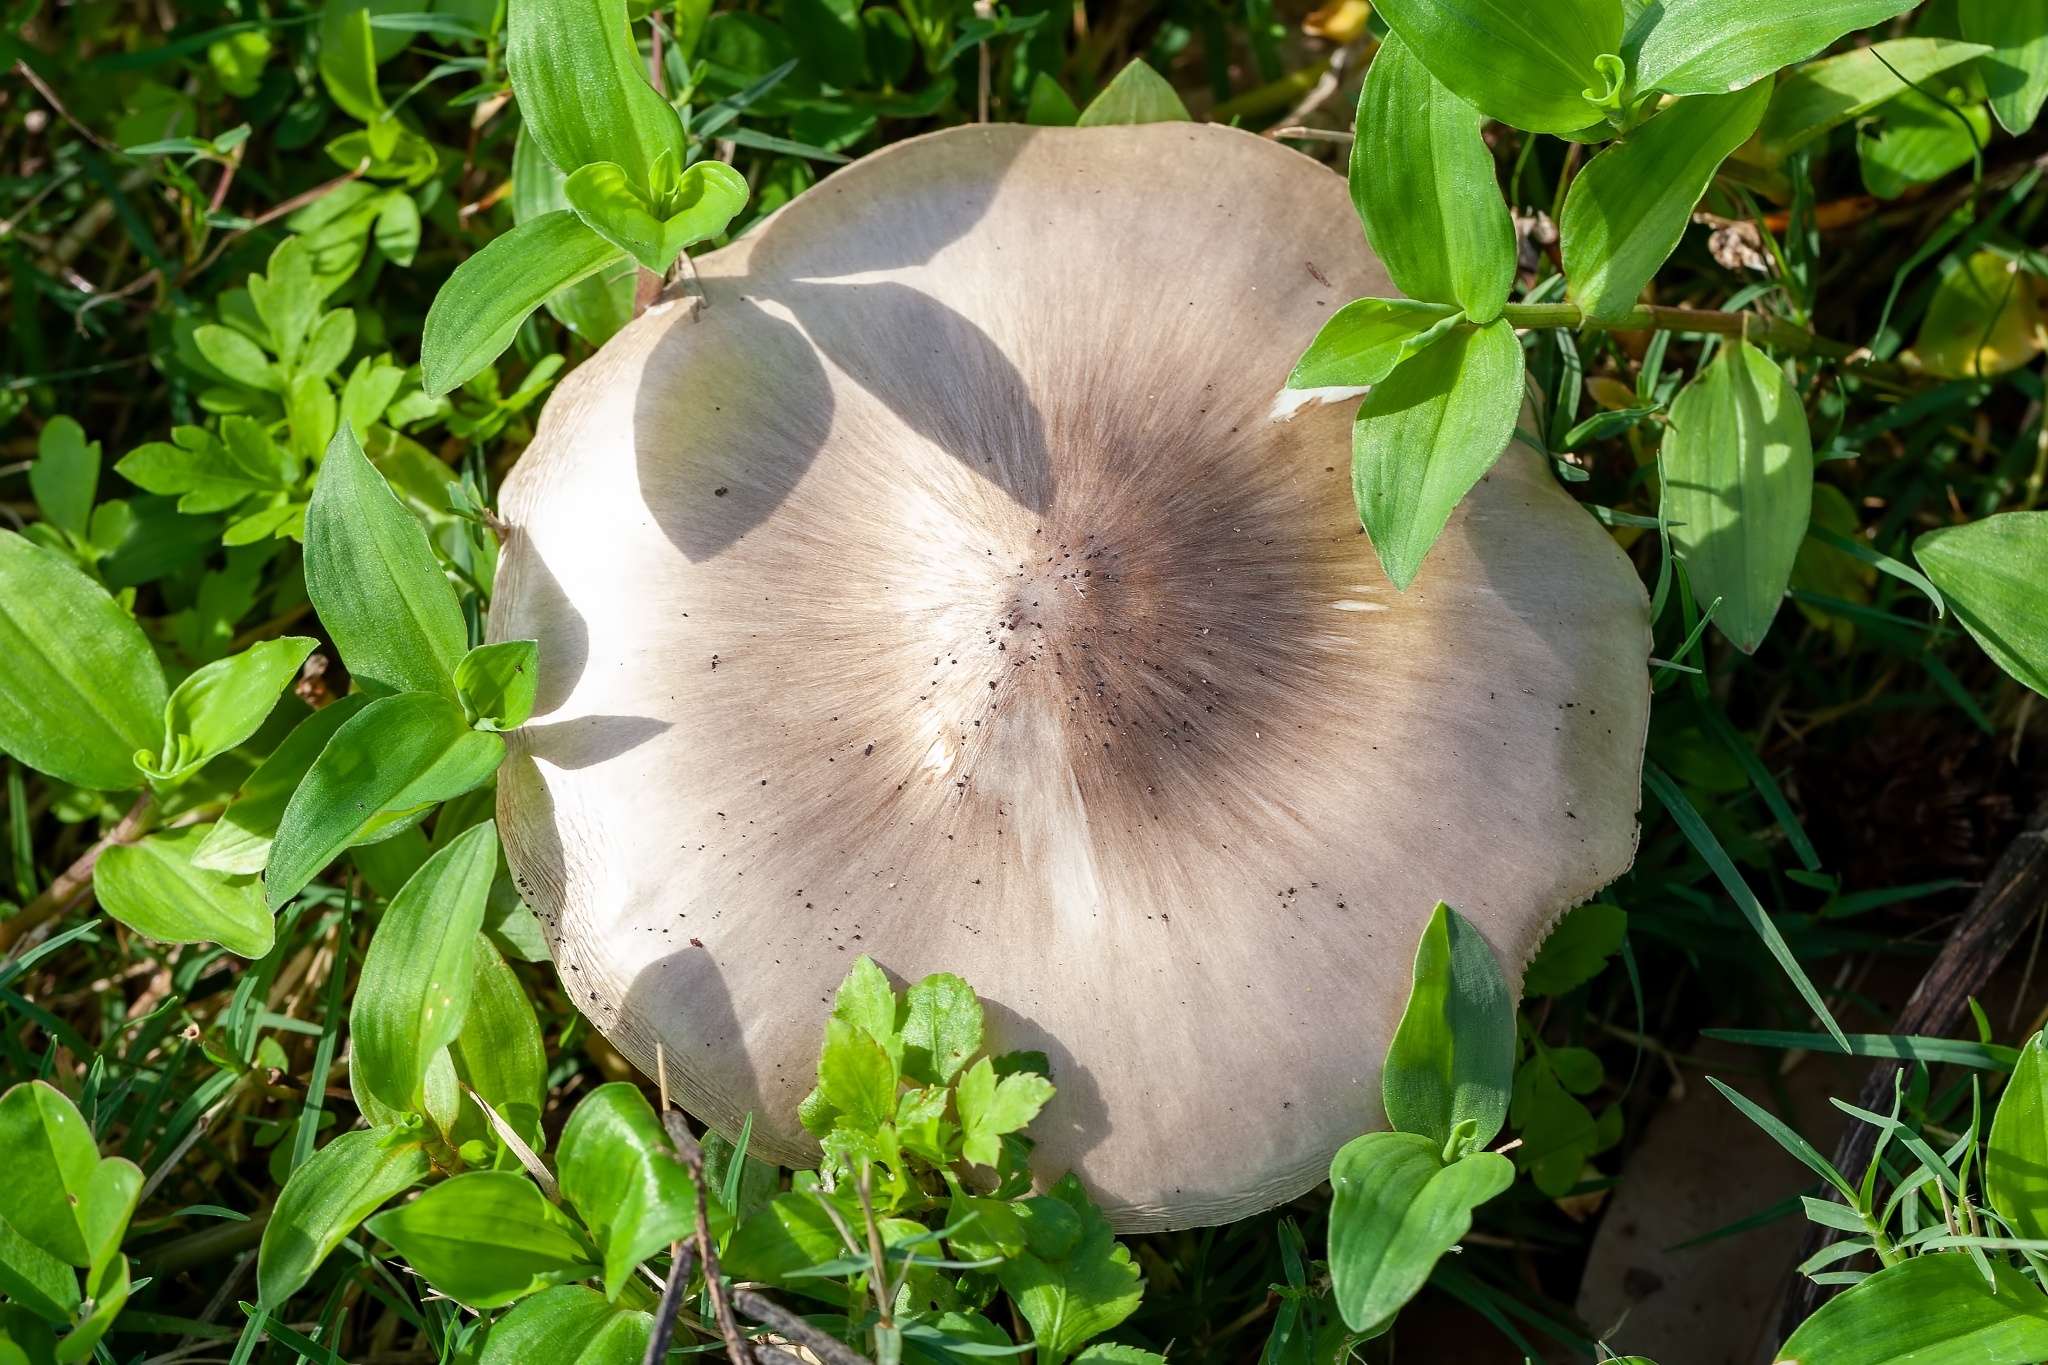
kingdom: Fungi
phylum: Basidiomycota
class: Agaricomycetes
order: Agaricales
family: Pluteaceae
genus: Pluteus
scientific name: Pluteus cervinus
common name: Deer shield
